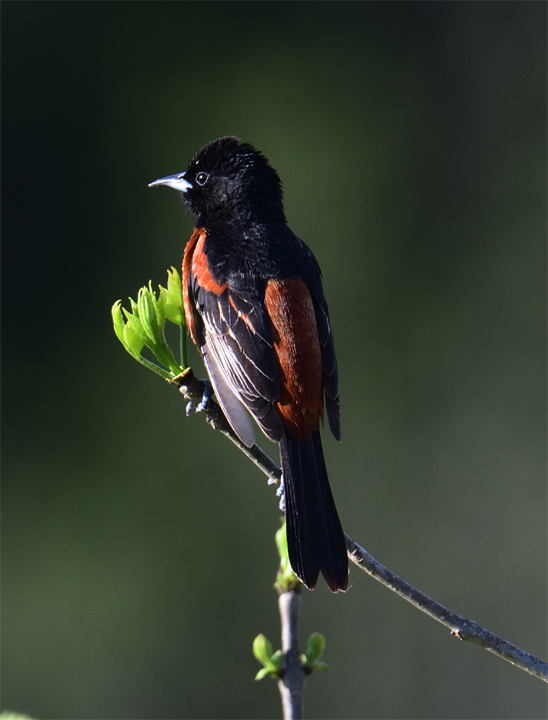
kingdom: Animalia
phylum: Chordata
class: Aves
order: Passeriformes
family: Icteridae
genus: Icterus
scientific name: Icterus spurius
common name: Orchard oriole
